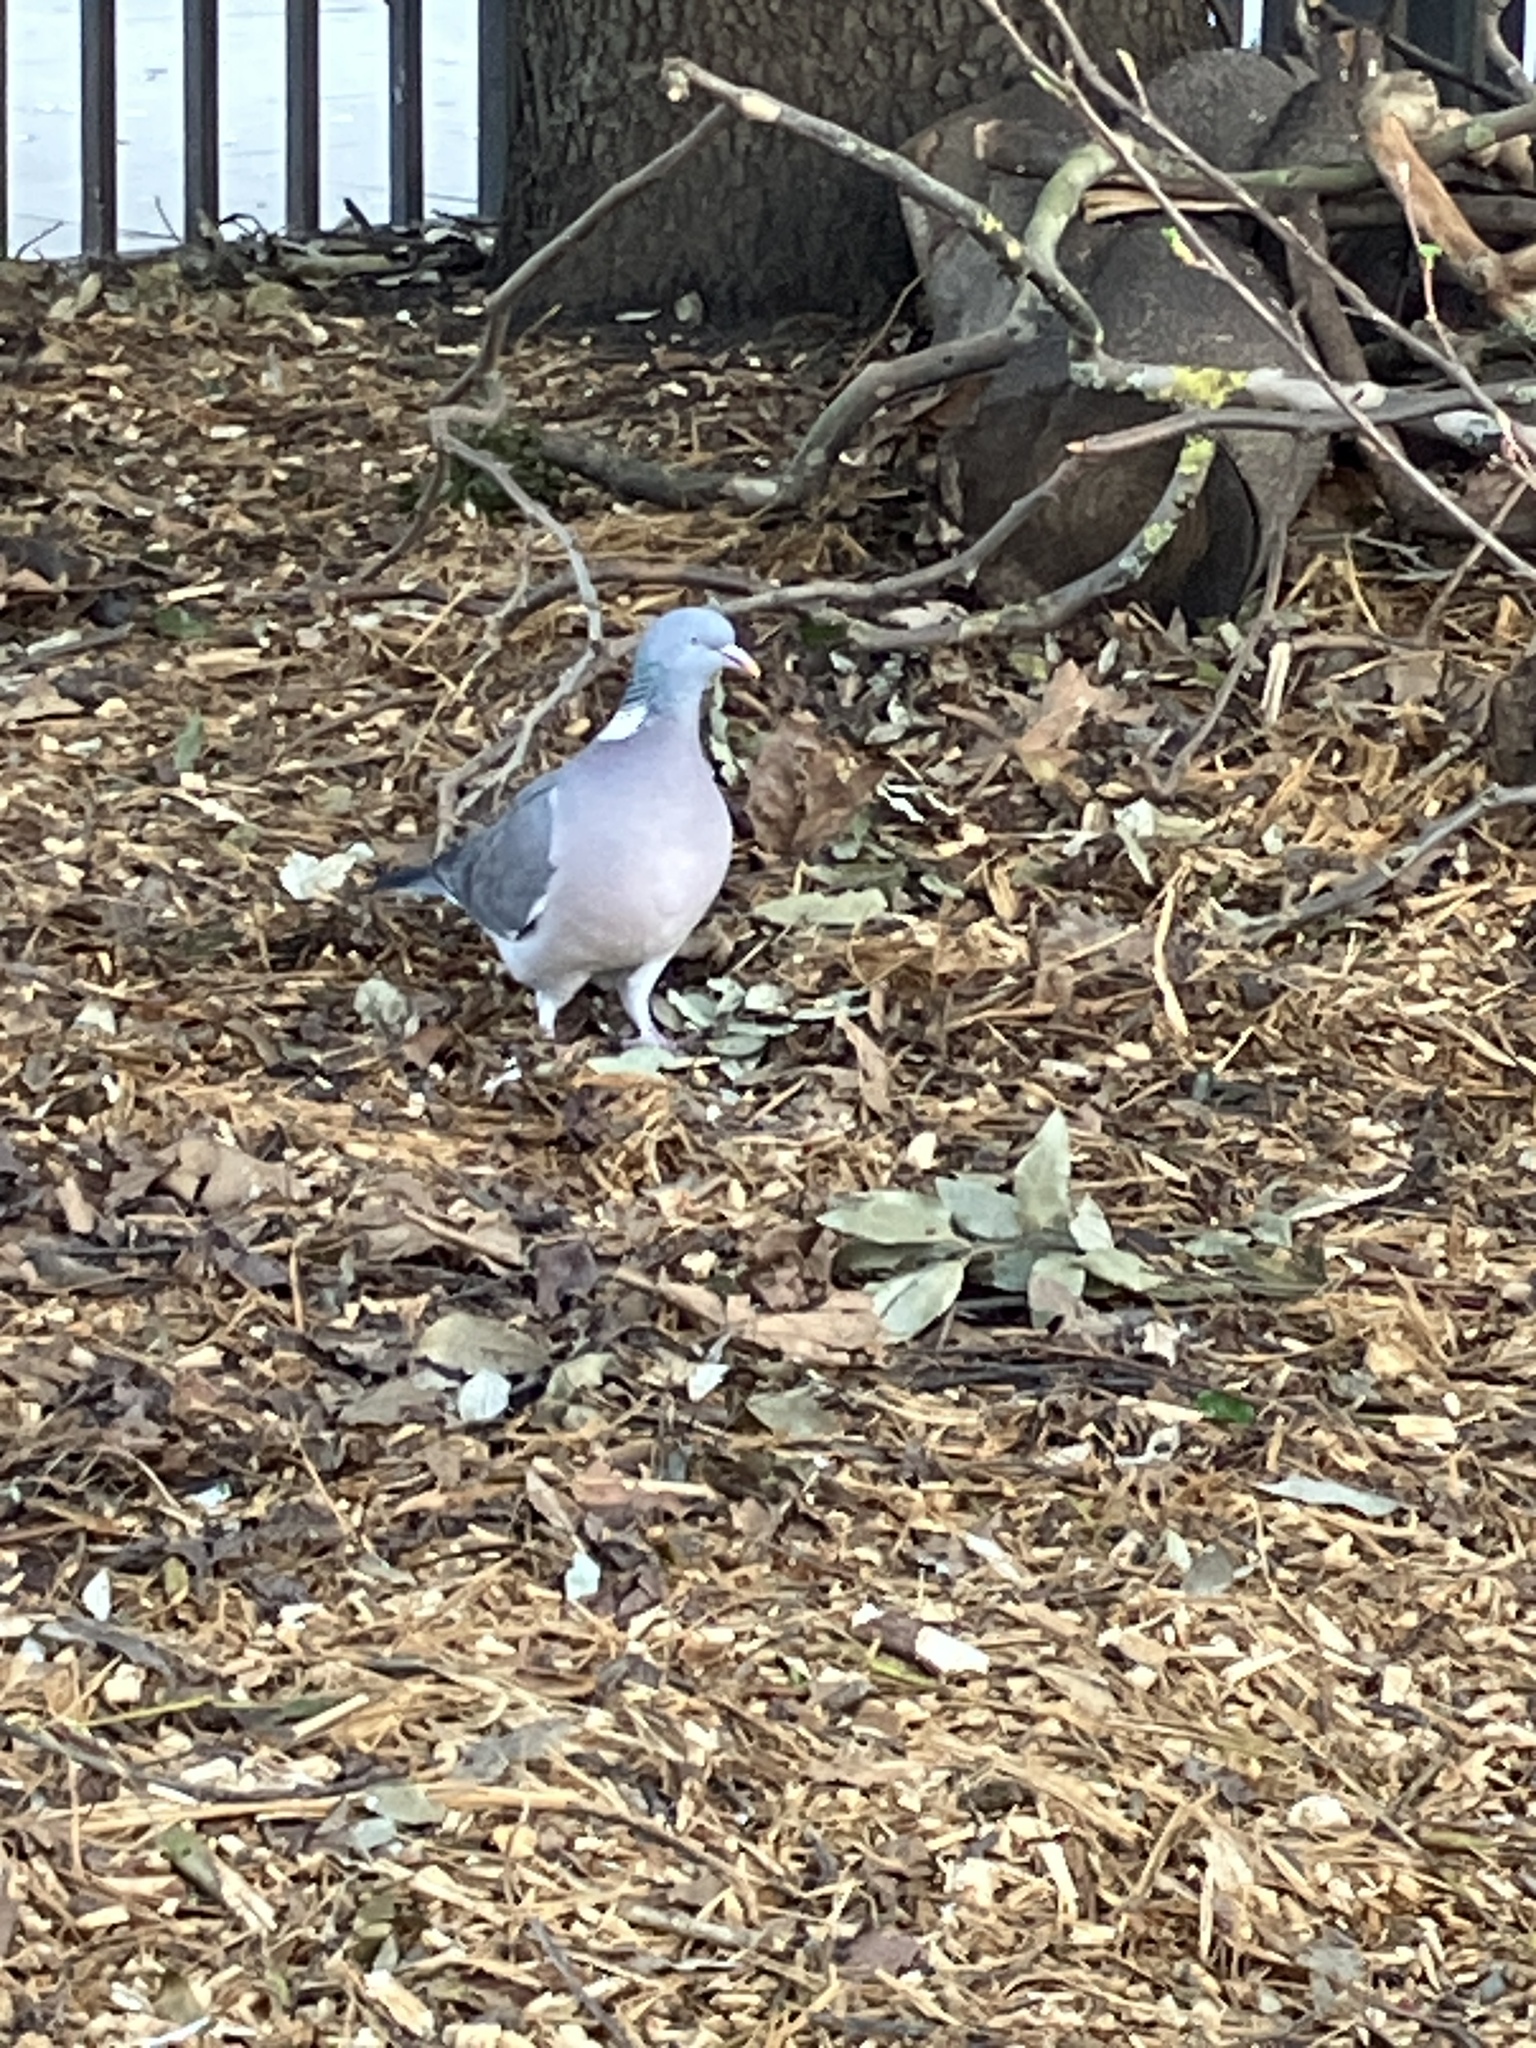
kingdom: Animalia
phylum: Chordata
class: Aves
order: Columbiformes
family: Columbidae
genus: Columba
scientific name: Columba palumbus
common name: Common wood pigeon
